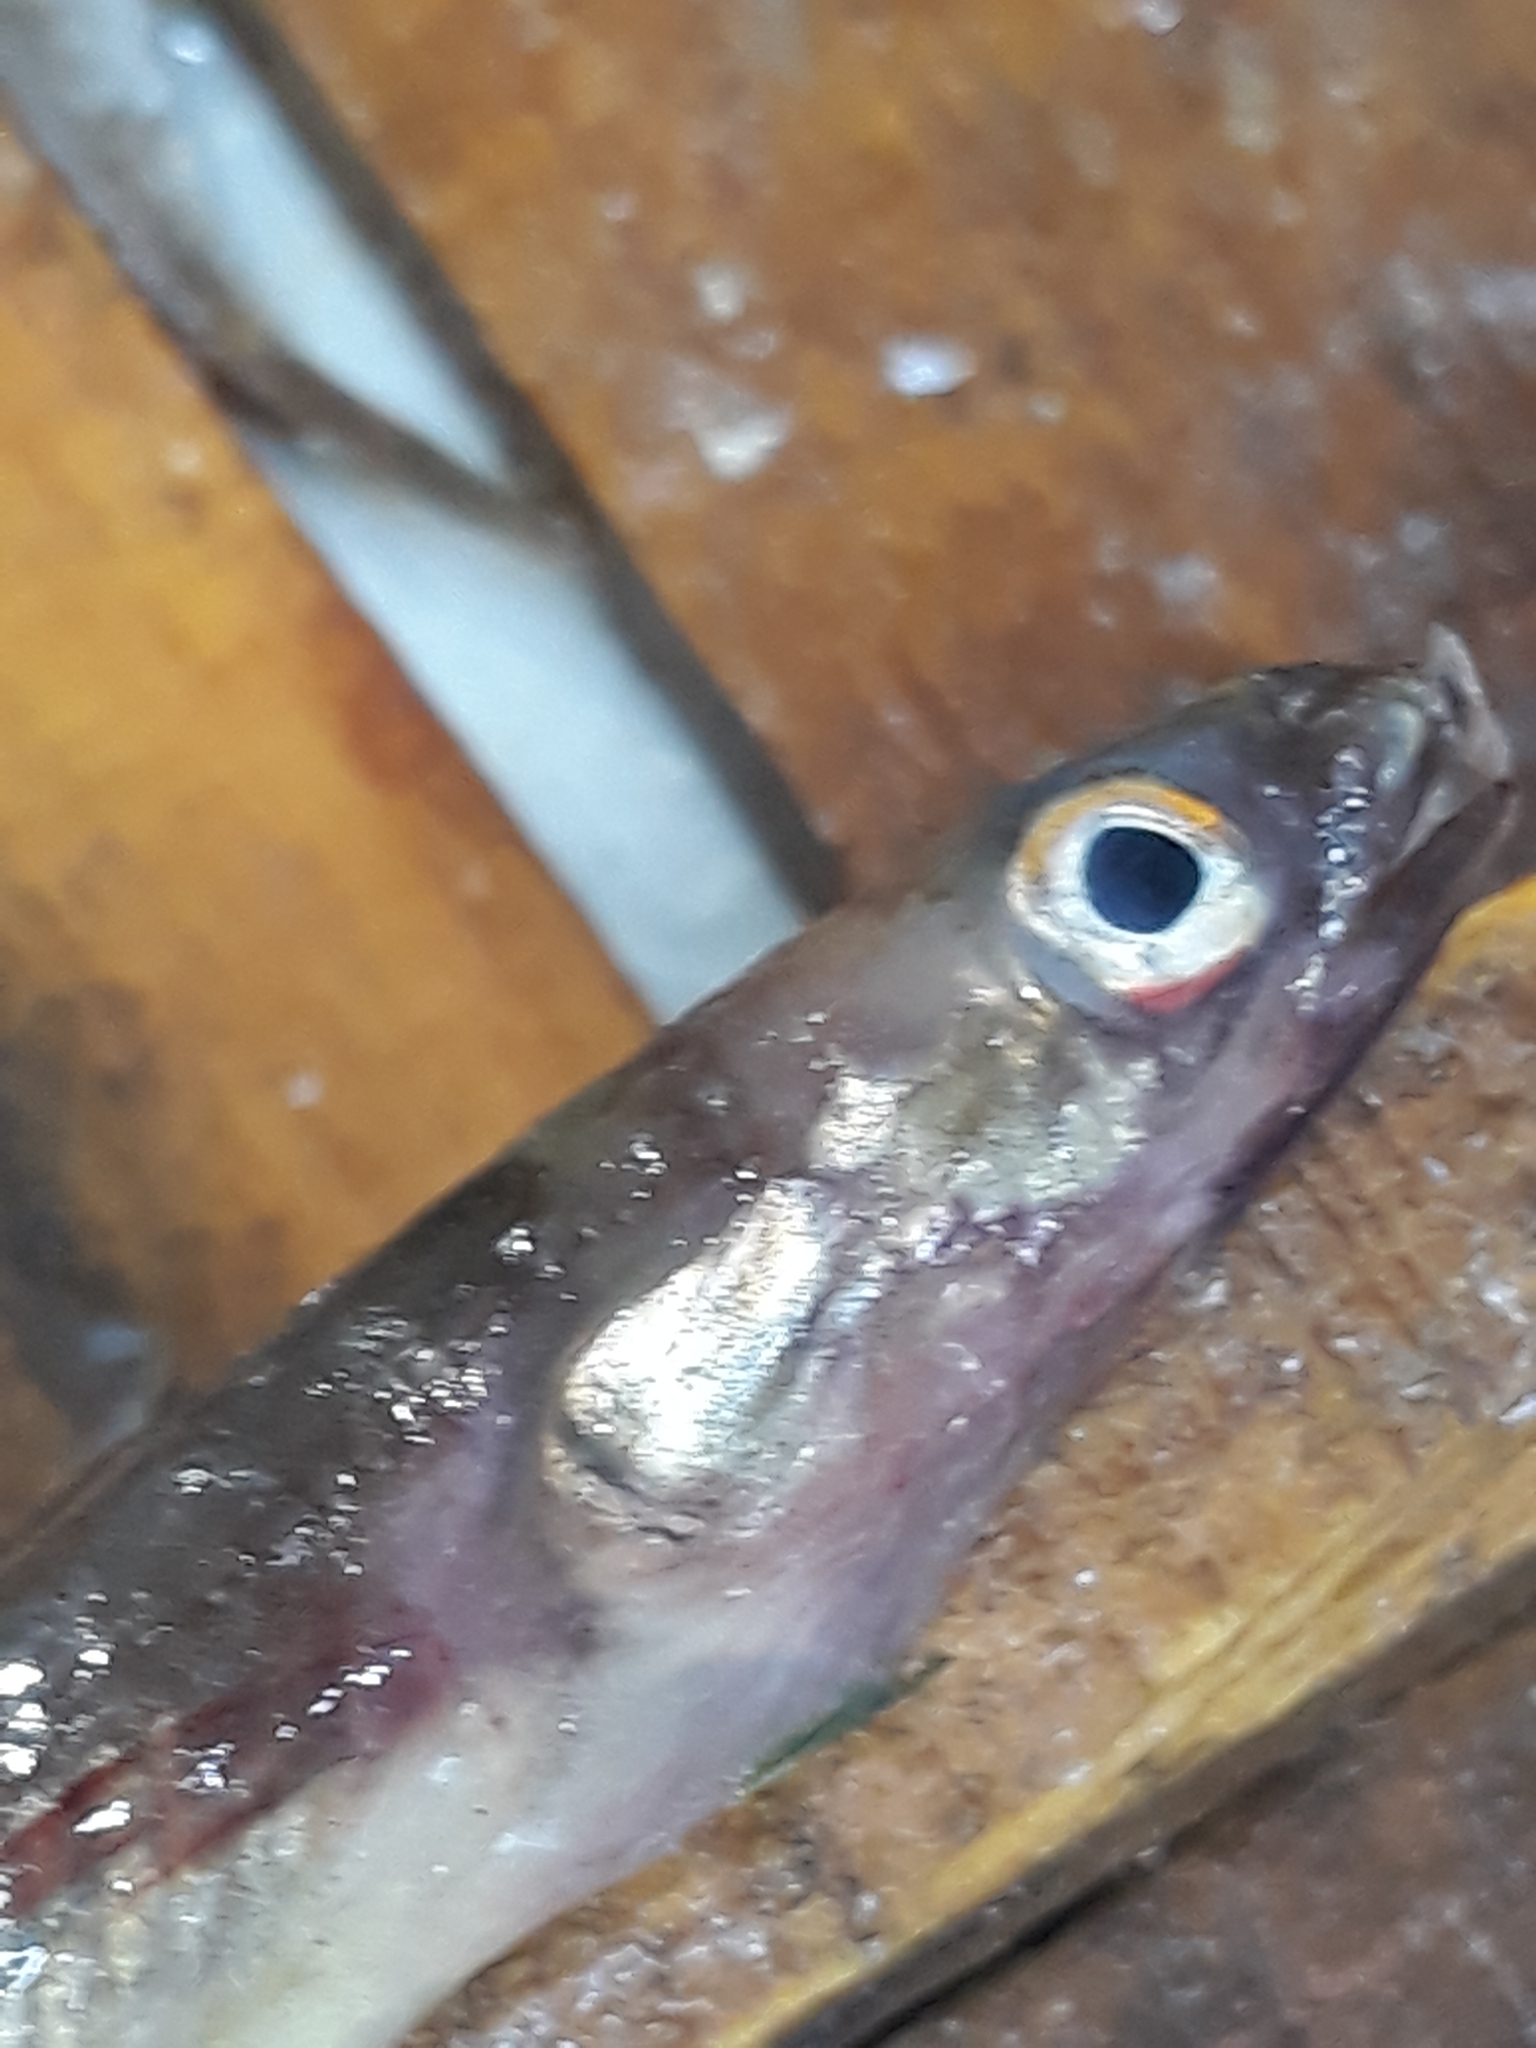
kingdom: Animalia
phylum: Chordata
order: Anguilliformes
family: Congridae
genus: Ariosoma
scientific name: Ariosoma balearicum
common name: Bandtooth conger
